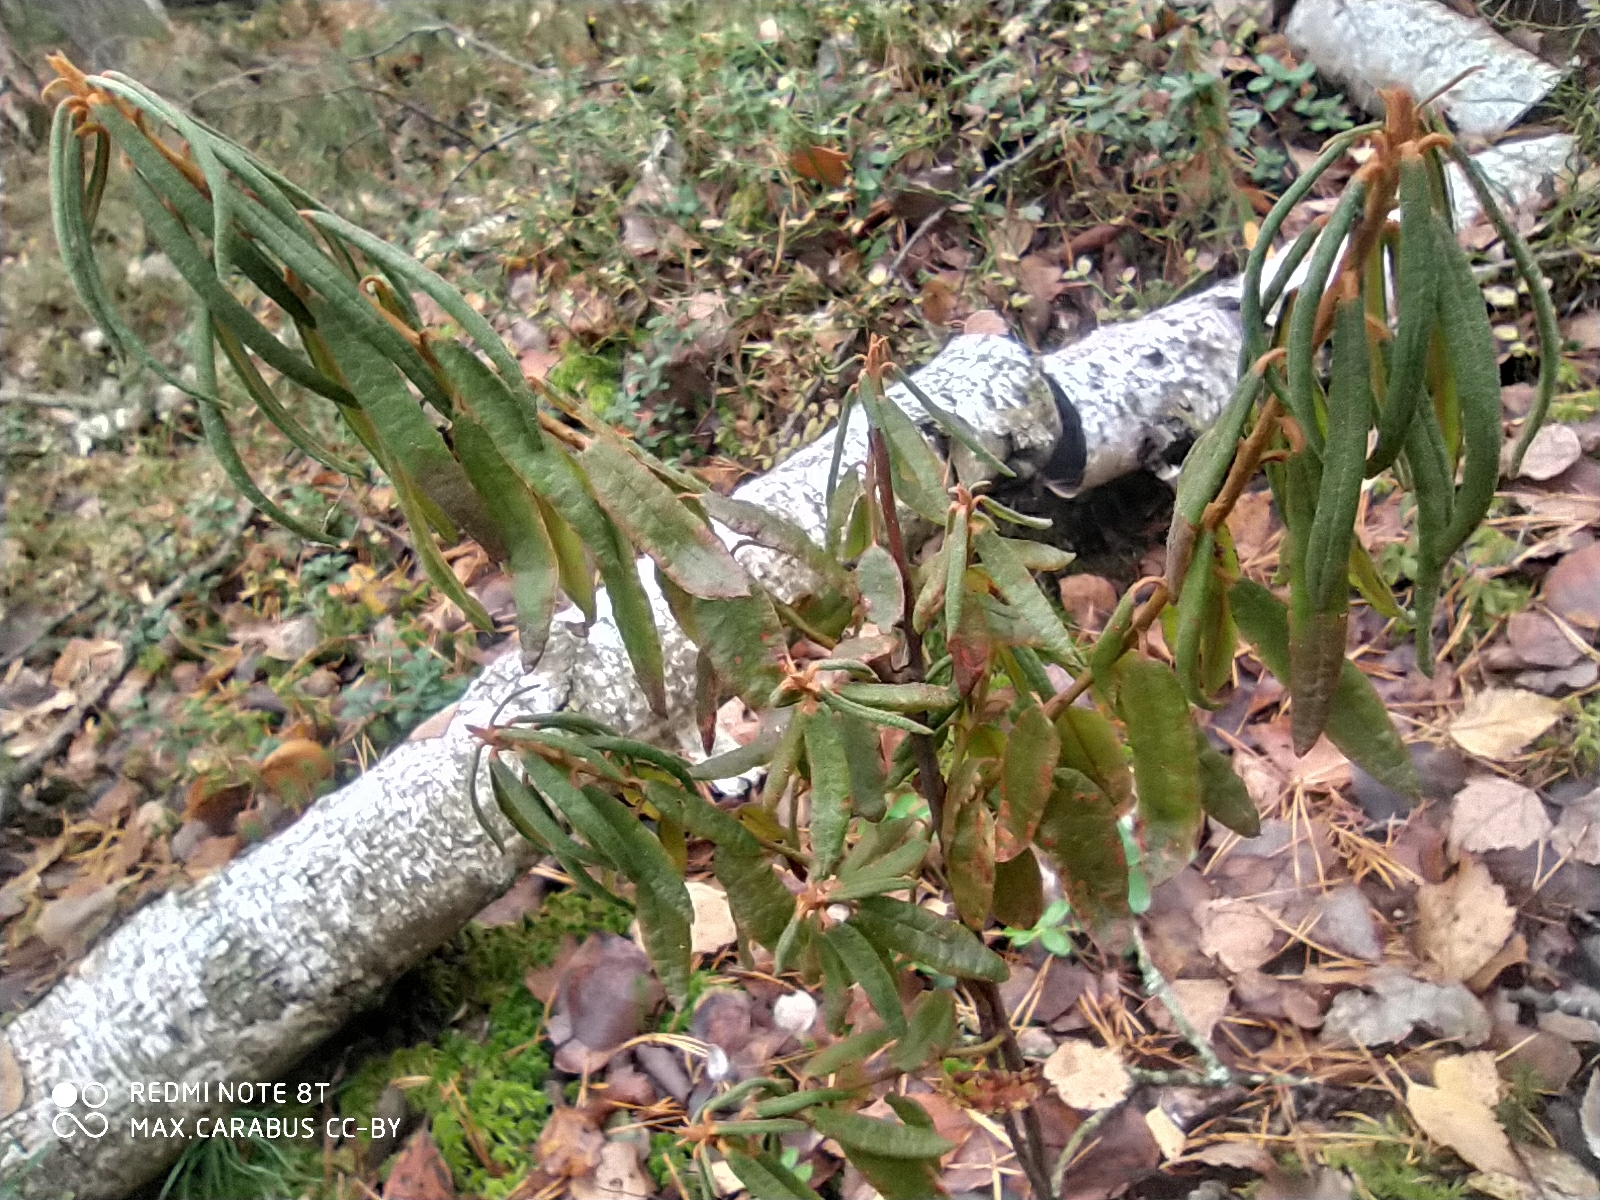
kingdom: Plantae
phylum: Tracheophyta
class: Magnoliopsida
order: Ericales
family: Ericaceae
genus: Rhododendron
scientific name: Rhododendron tomentosum
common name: Marsh labrador tea
